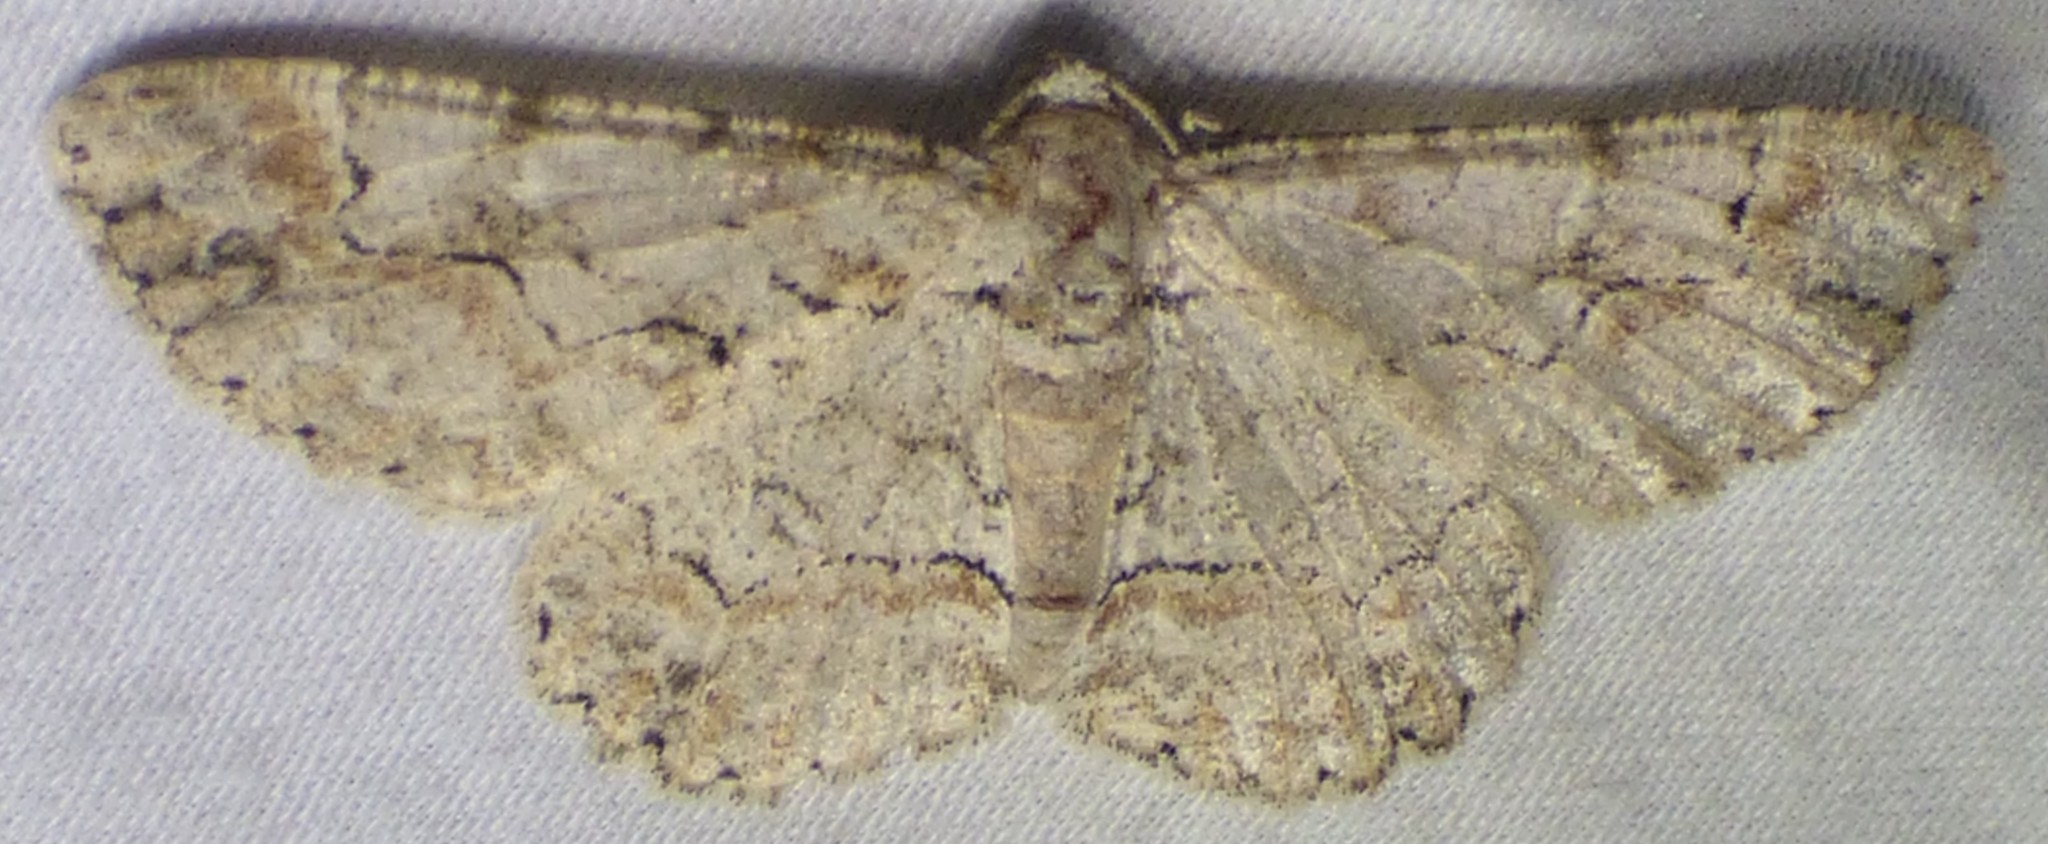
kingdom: Animalia
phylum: Arthropoda
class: Insecta
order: Lepidoptera
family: Geometridae
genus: Iridopsis
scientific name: Iridopsis defectaria
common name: Brown-shaded gray
